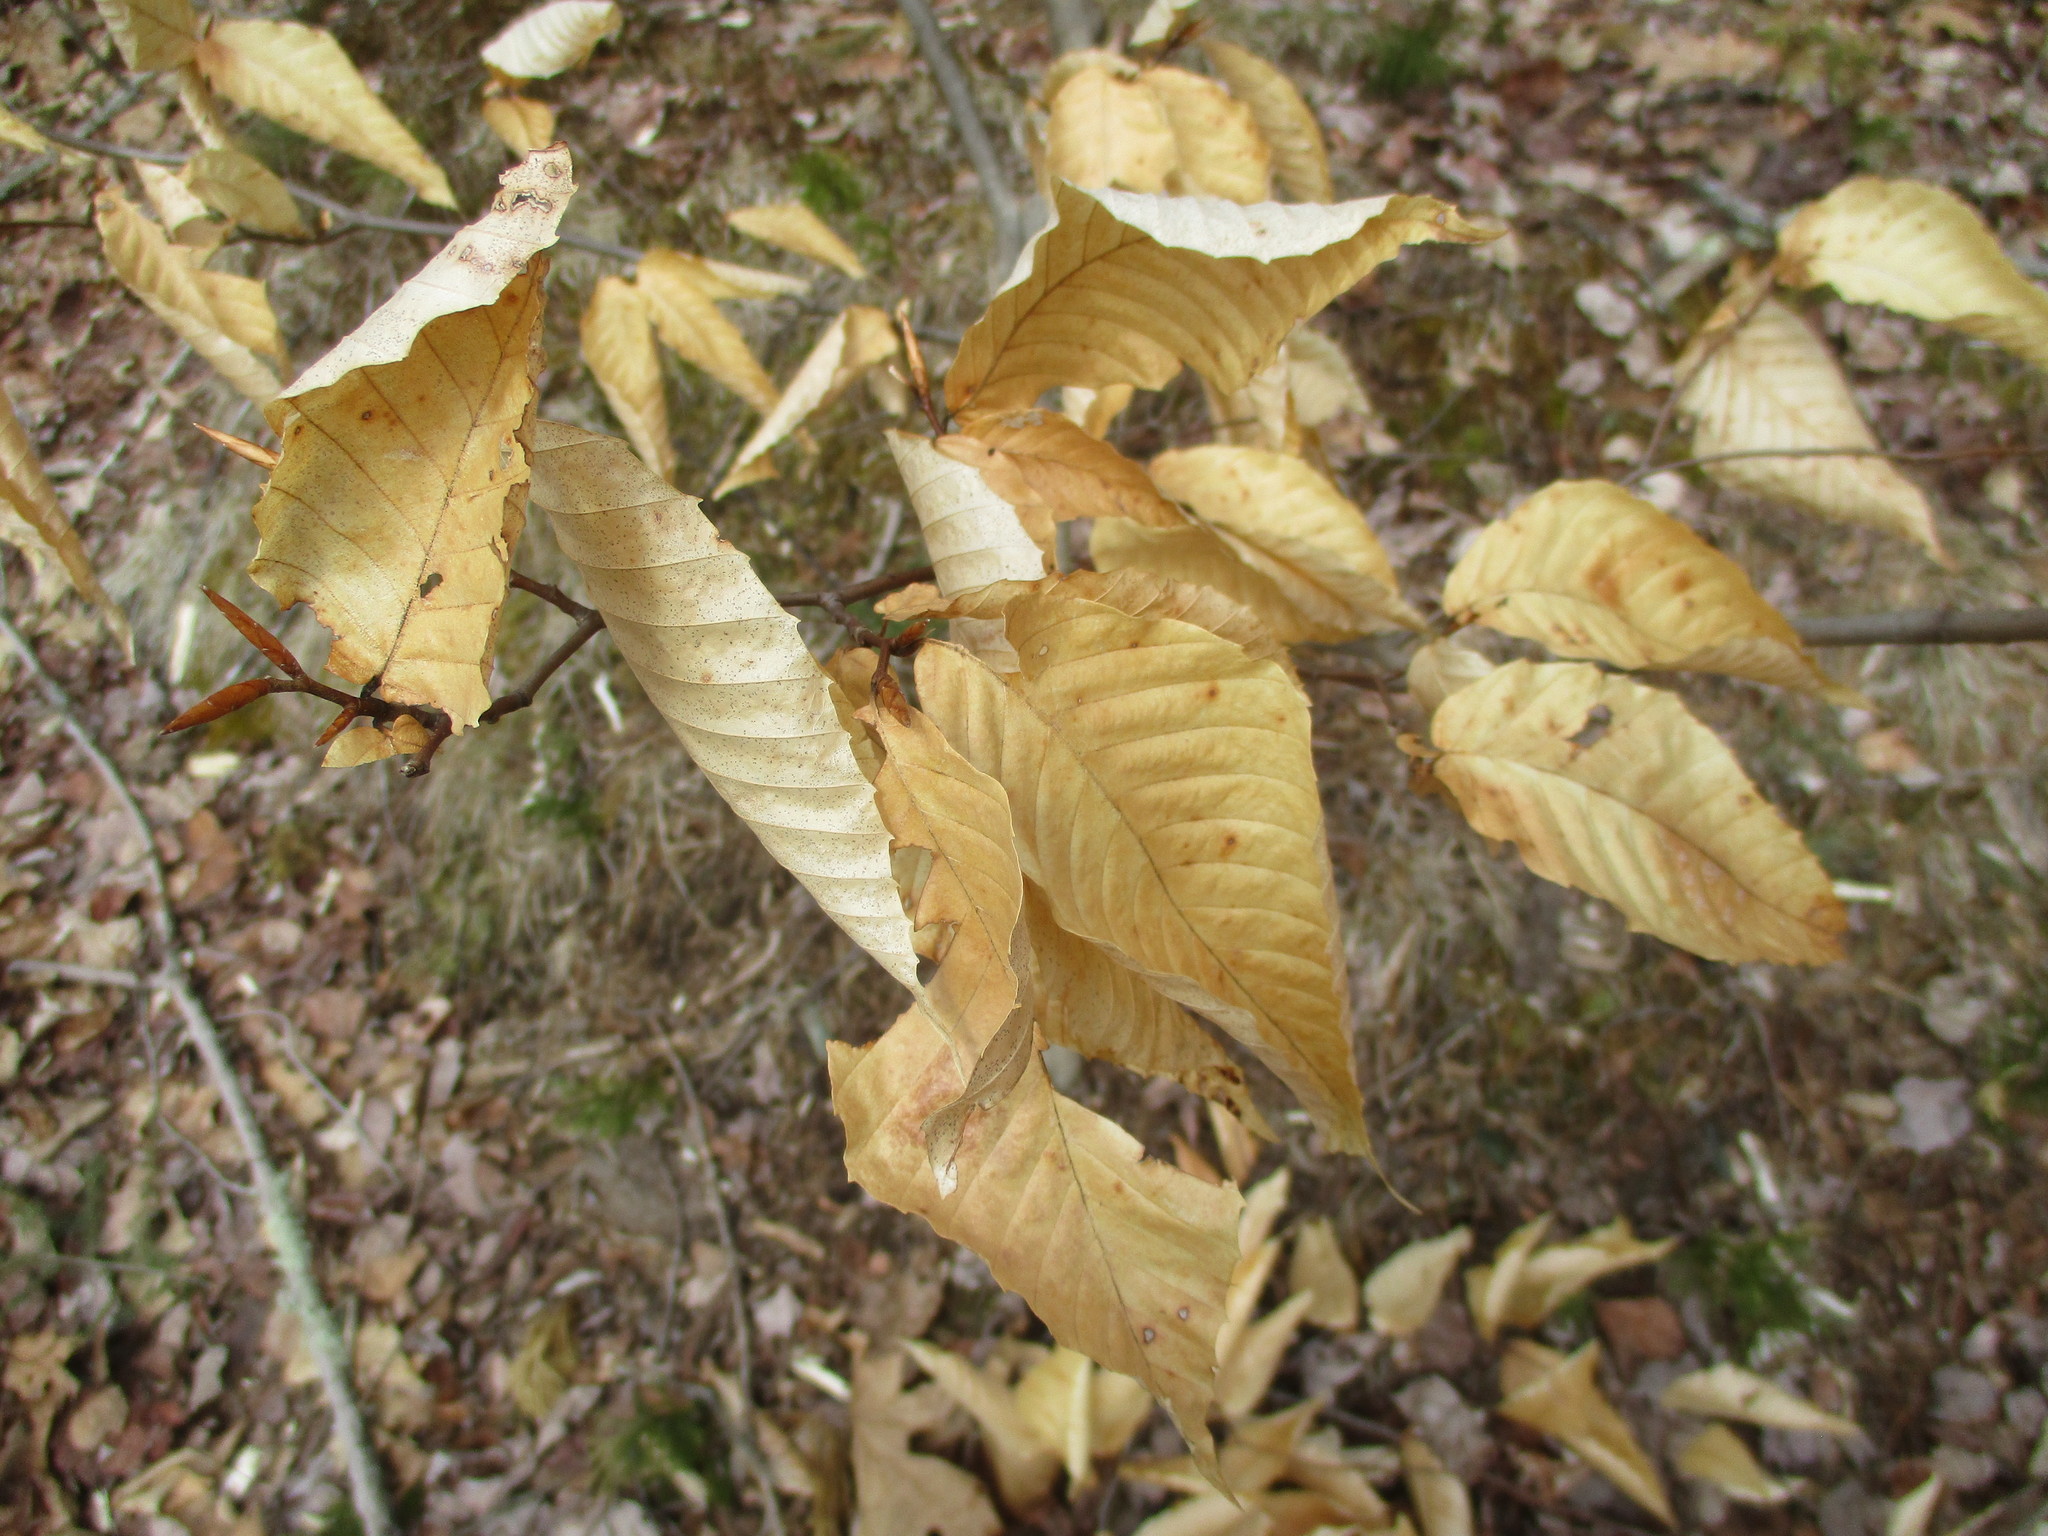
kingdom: Plantae
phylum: Tracheophyta
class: Magnoliopsida
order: Fagales
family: Fagaceae
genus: Fagus
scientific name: Fagus grandifolia
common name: American beech
